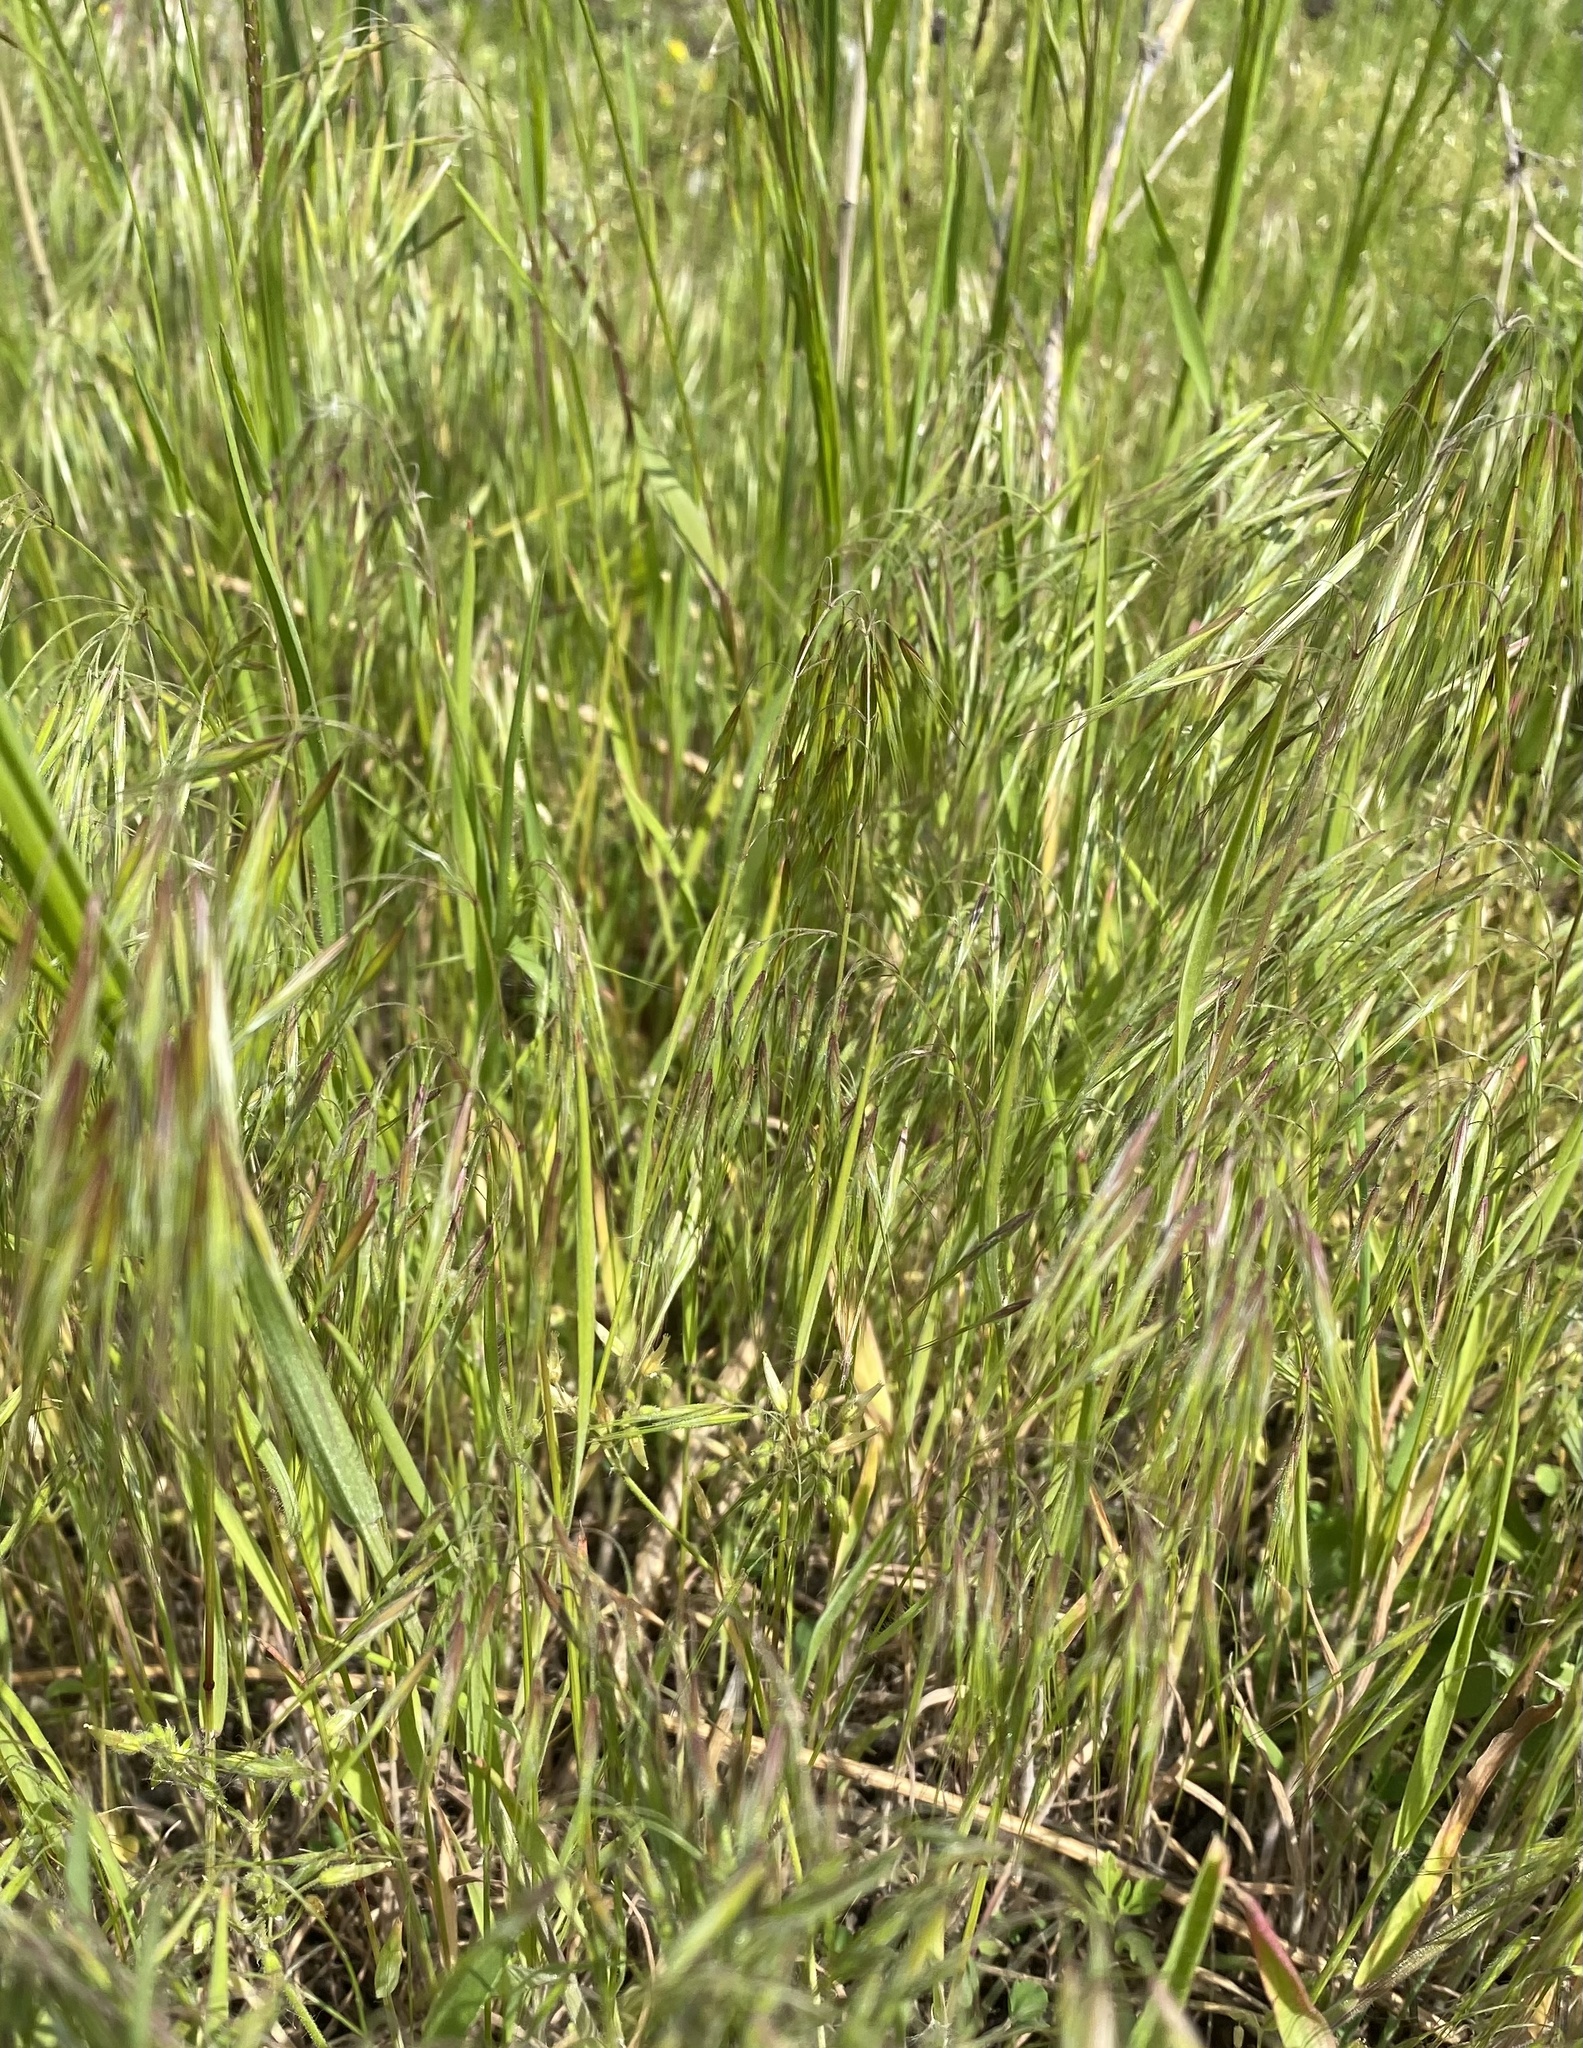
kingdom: Plantae
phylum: Tracheophyta
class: Liliopsida
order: Poales
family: Poaceae
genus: Bromus
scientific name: Bromus tectorum
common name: Cheatgrass
